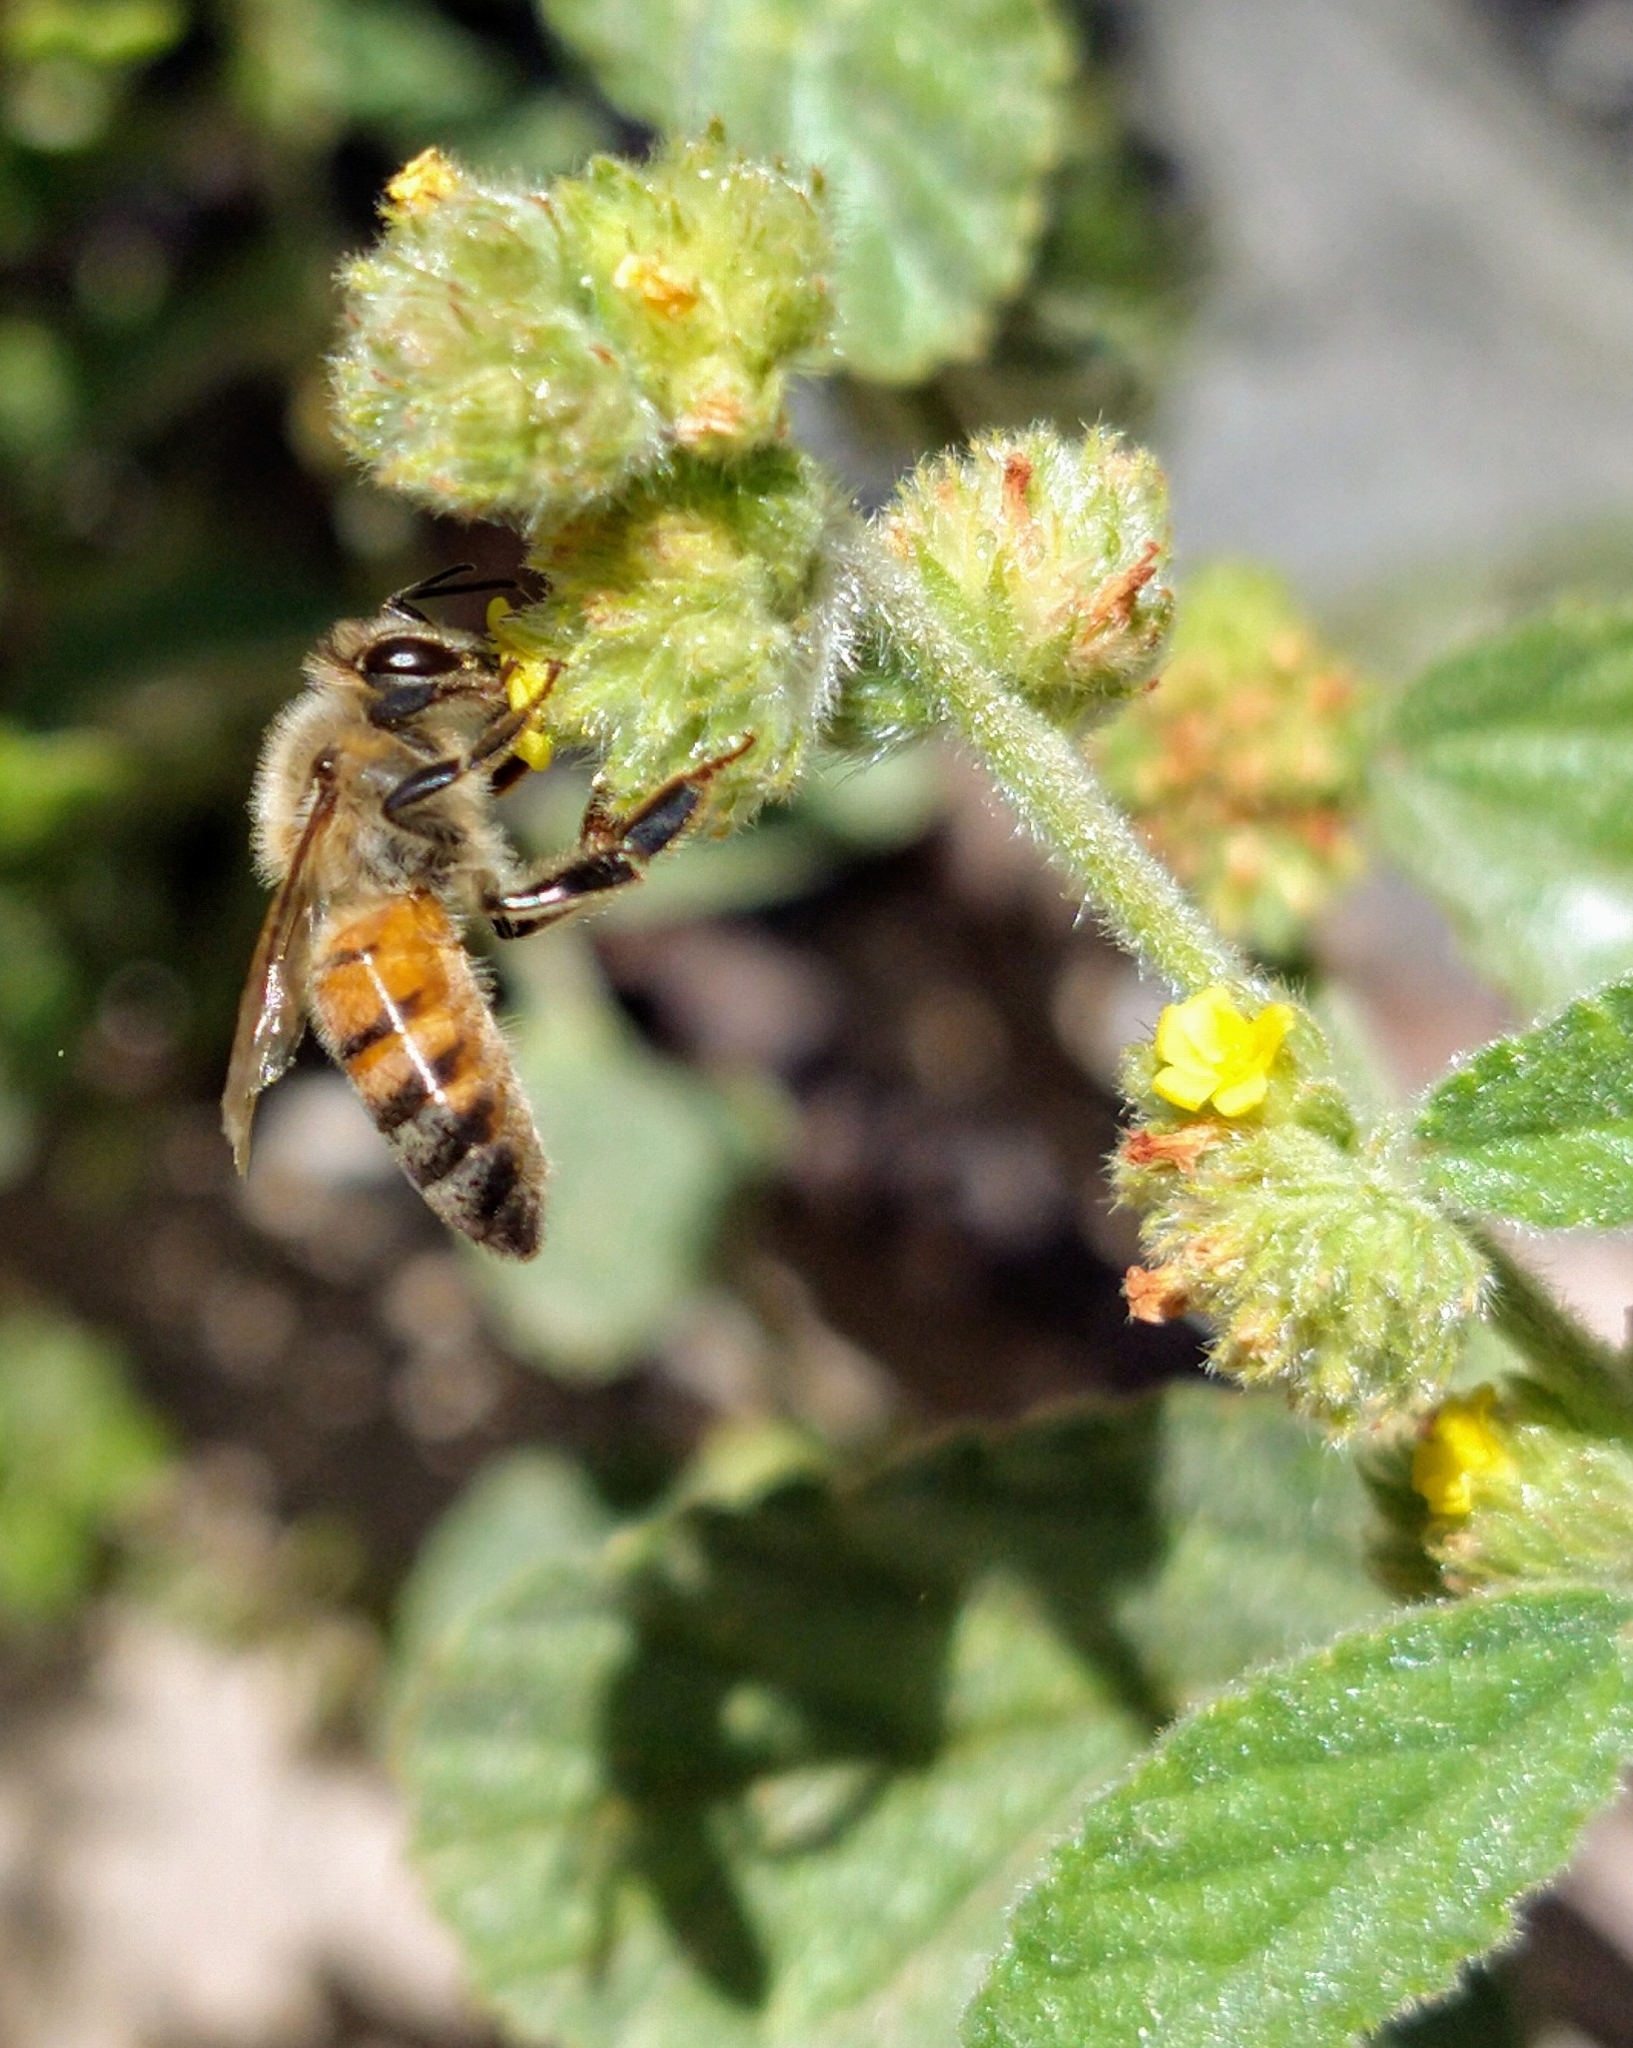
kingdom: Animalia
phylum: Arthropoda
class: Insecta
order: Hymenoptera
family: Apidae
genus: Apis
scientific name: Apis mellifera
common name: Honey bee
